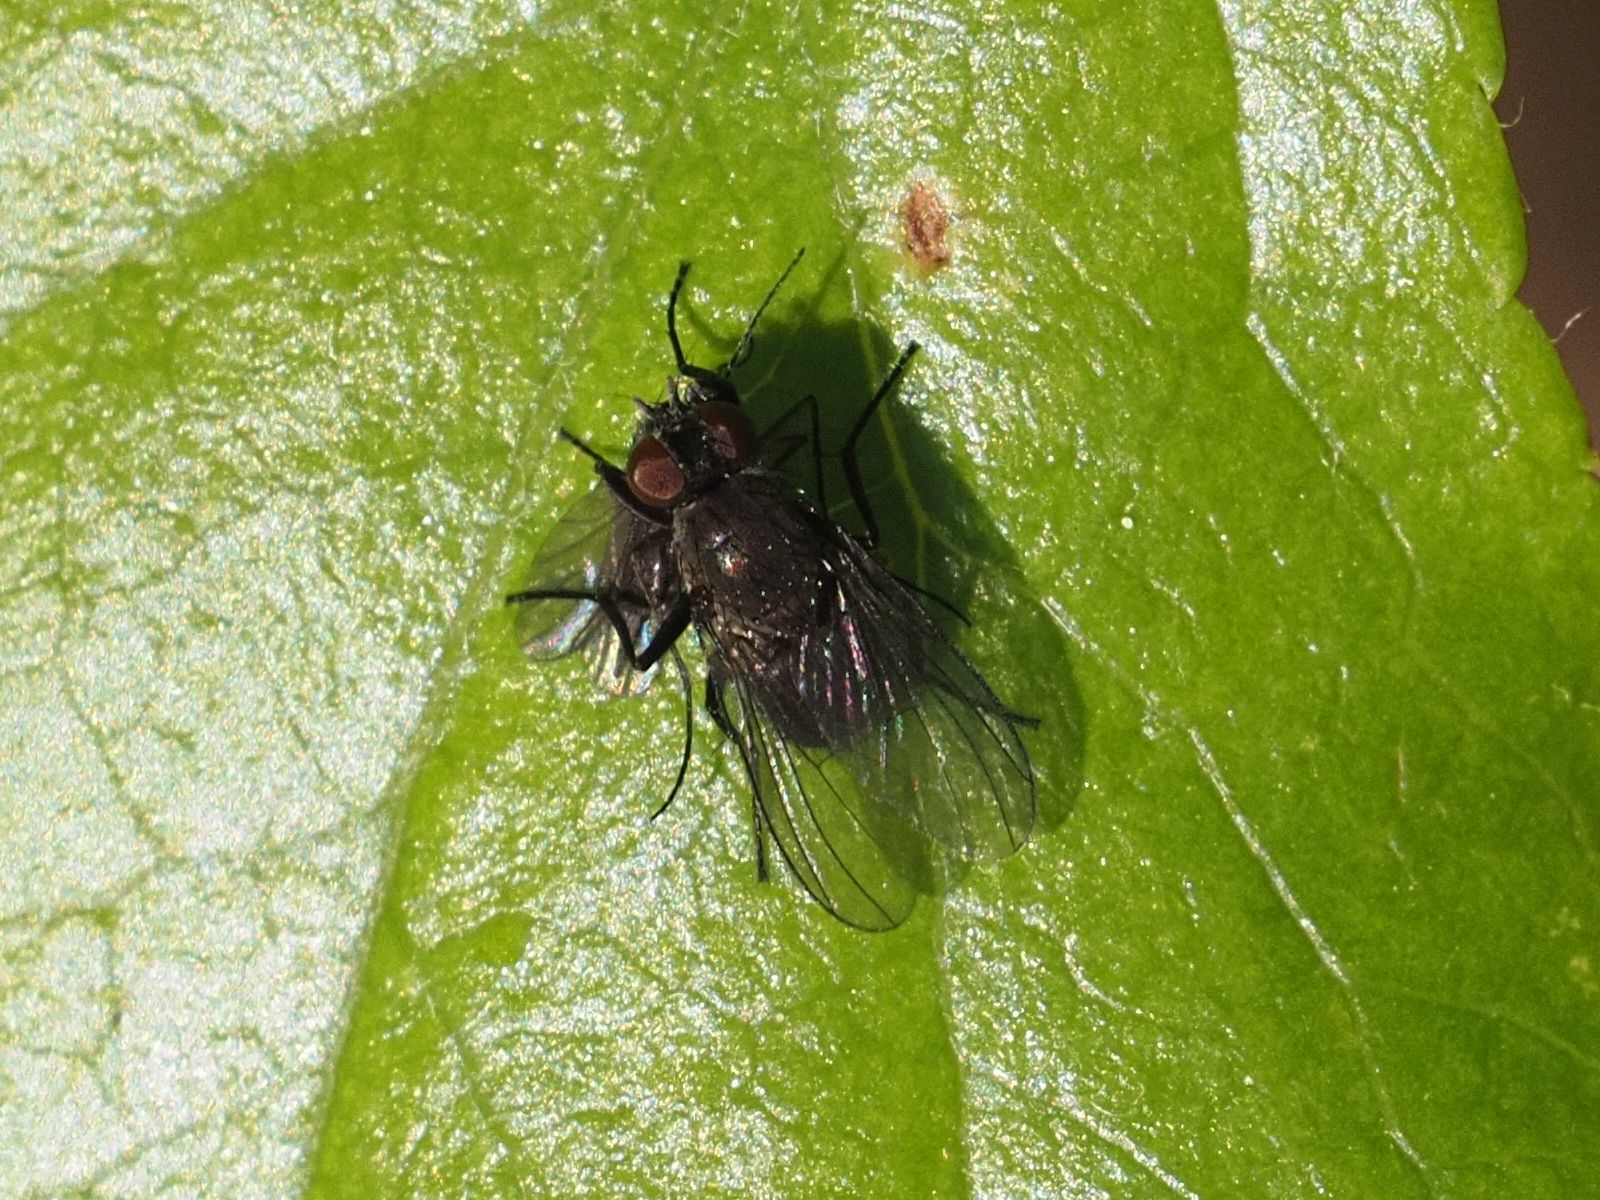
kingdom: Animalia
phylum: Arthropoda
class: Insecta
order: Diptera
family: Muscidae
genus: Coenosia
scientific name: Coenosia agromyzina
